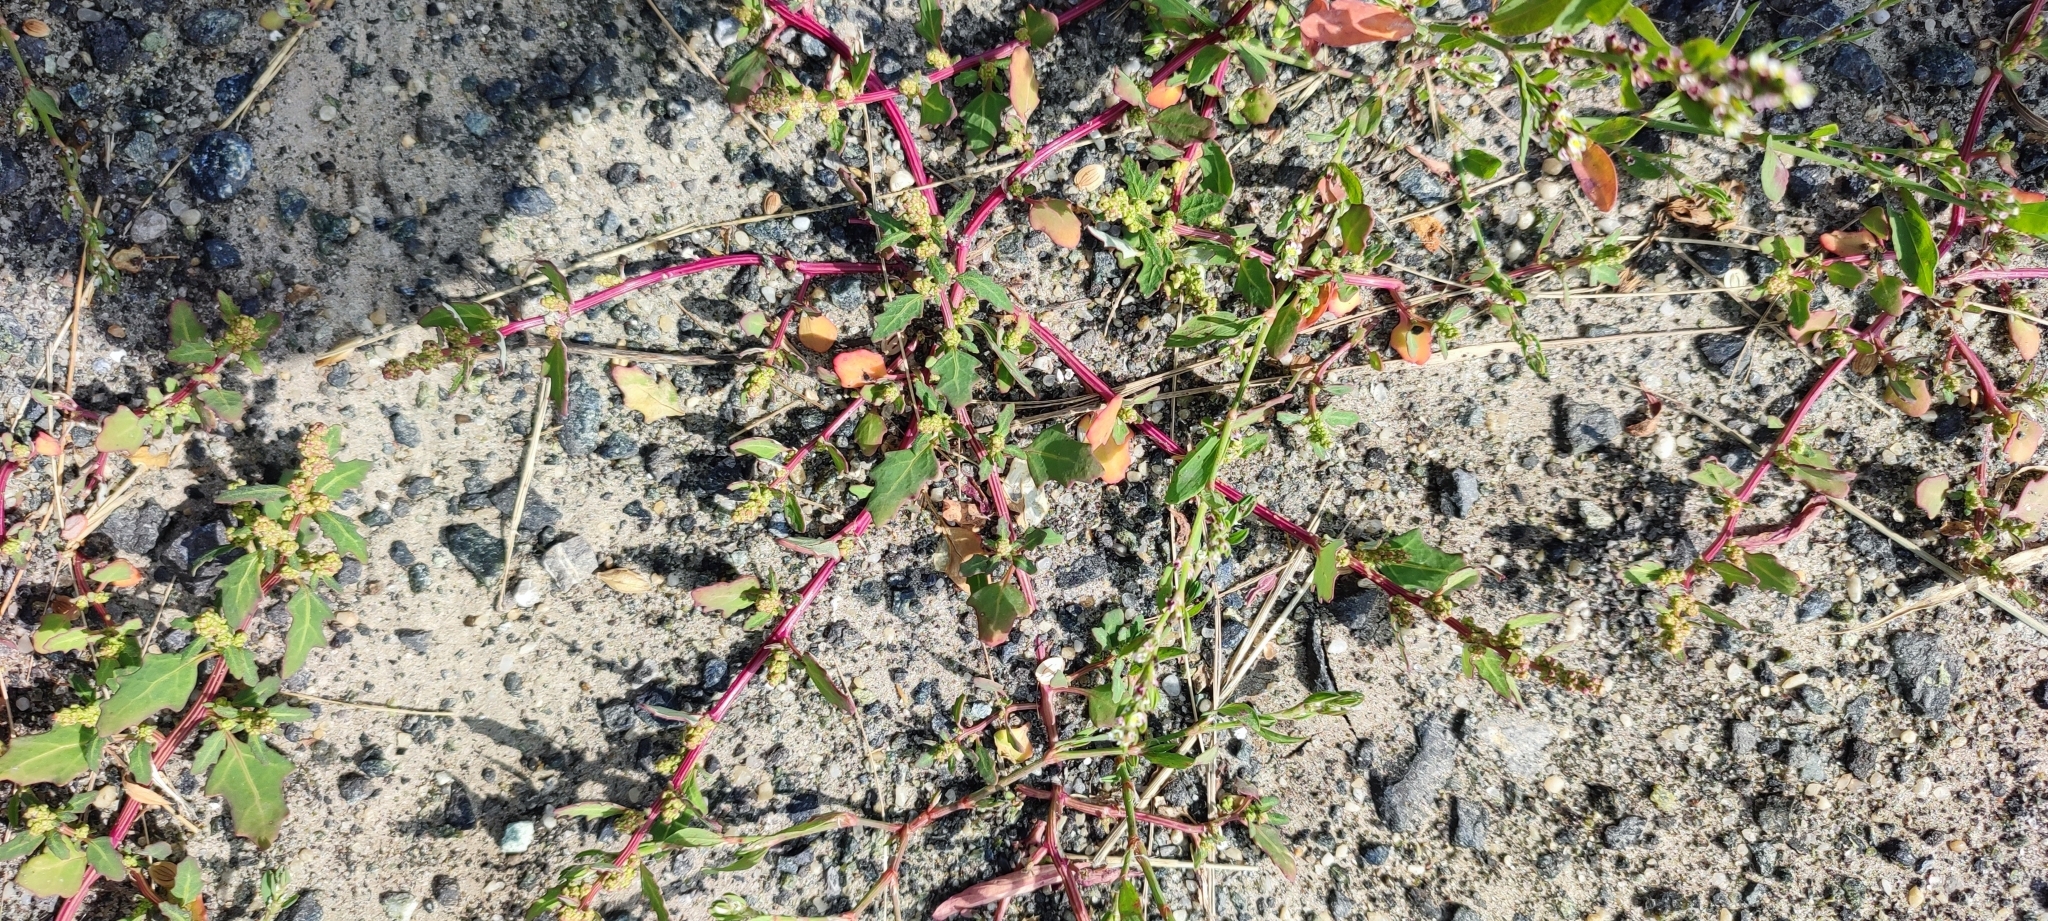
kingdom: Plantae
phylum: Tracheophyta
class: Magnoliopsida
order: Caryophyllales
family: Amaranthaceae
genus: Oxybasis
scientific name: Oxybasis glauca
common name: Glaucous goosefoot
